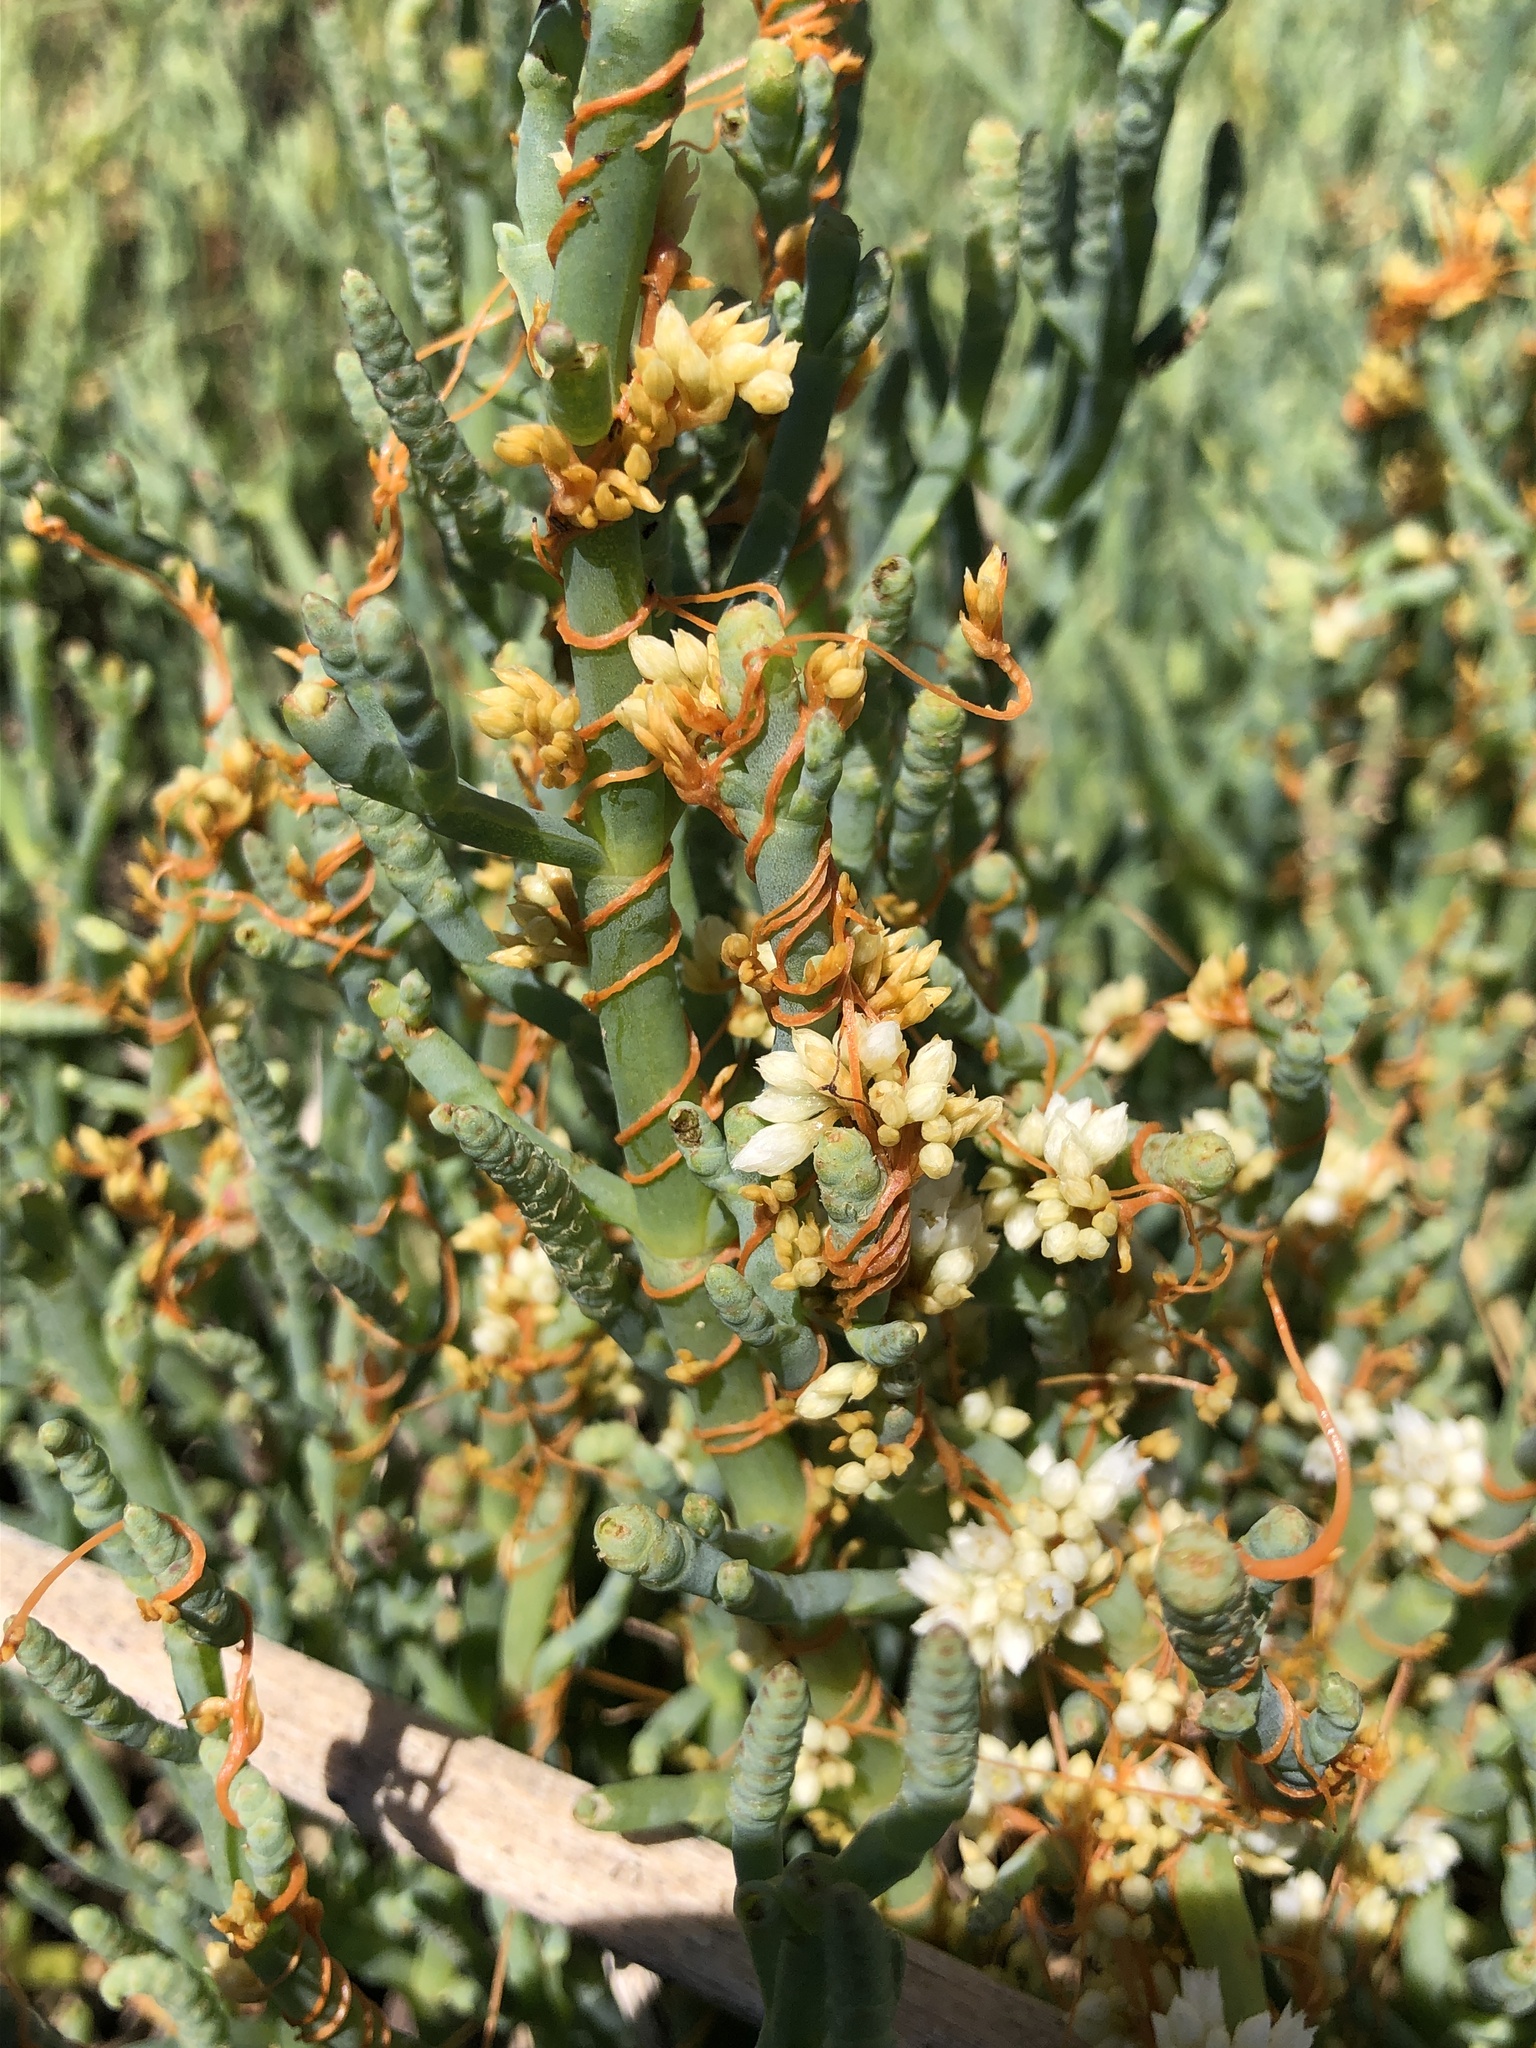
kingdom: Plantae
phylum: Tracheophyta
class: Magnoliopsida
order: Solanales
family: Convolvulaceae
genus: Cuscuta
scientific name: Cuscuta pacifica
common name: Large saltmarsh dodder
